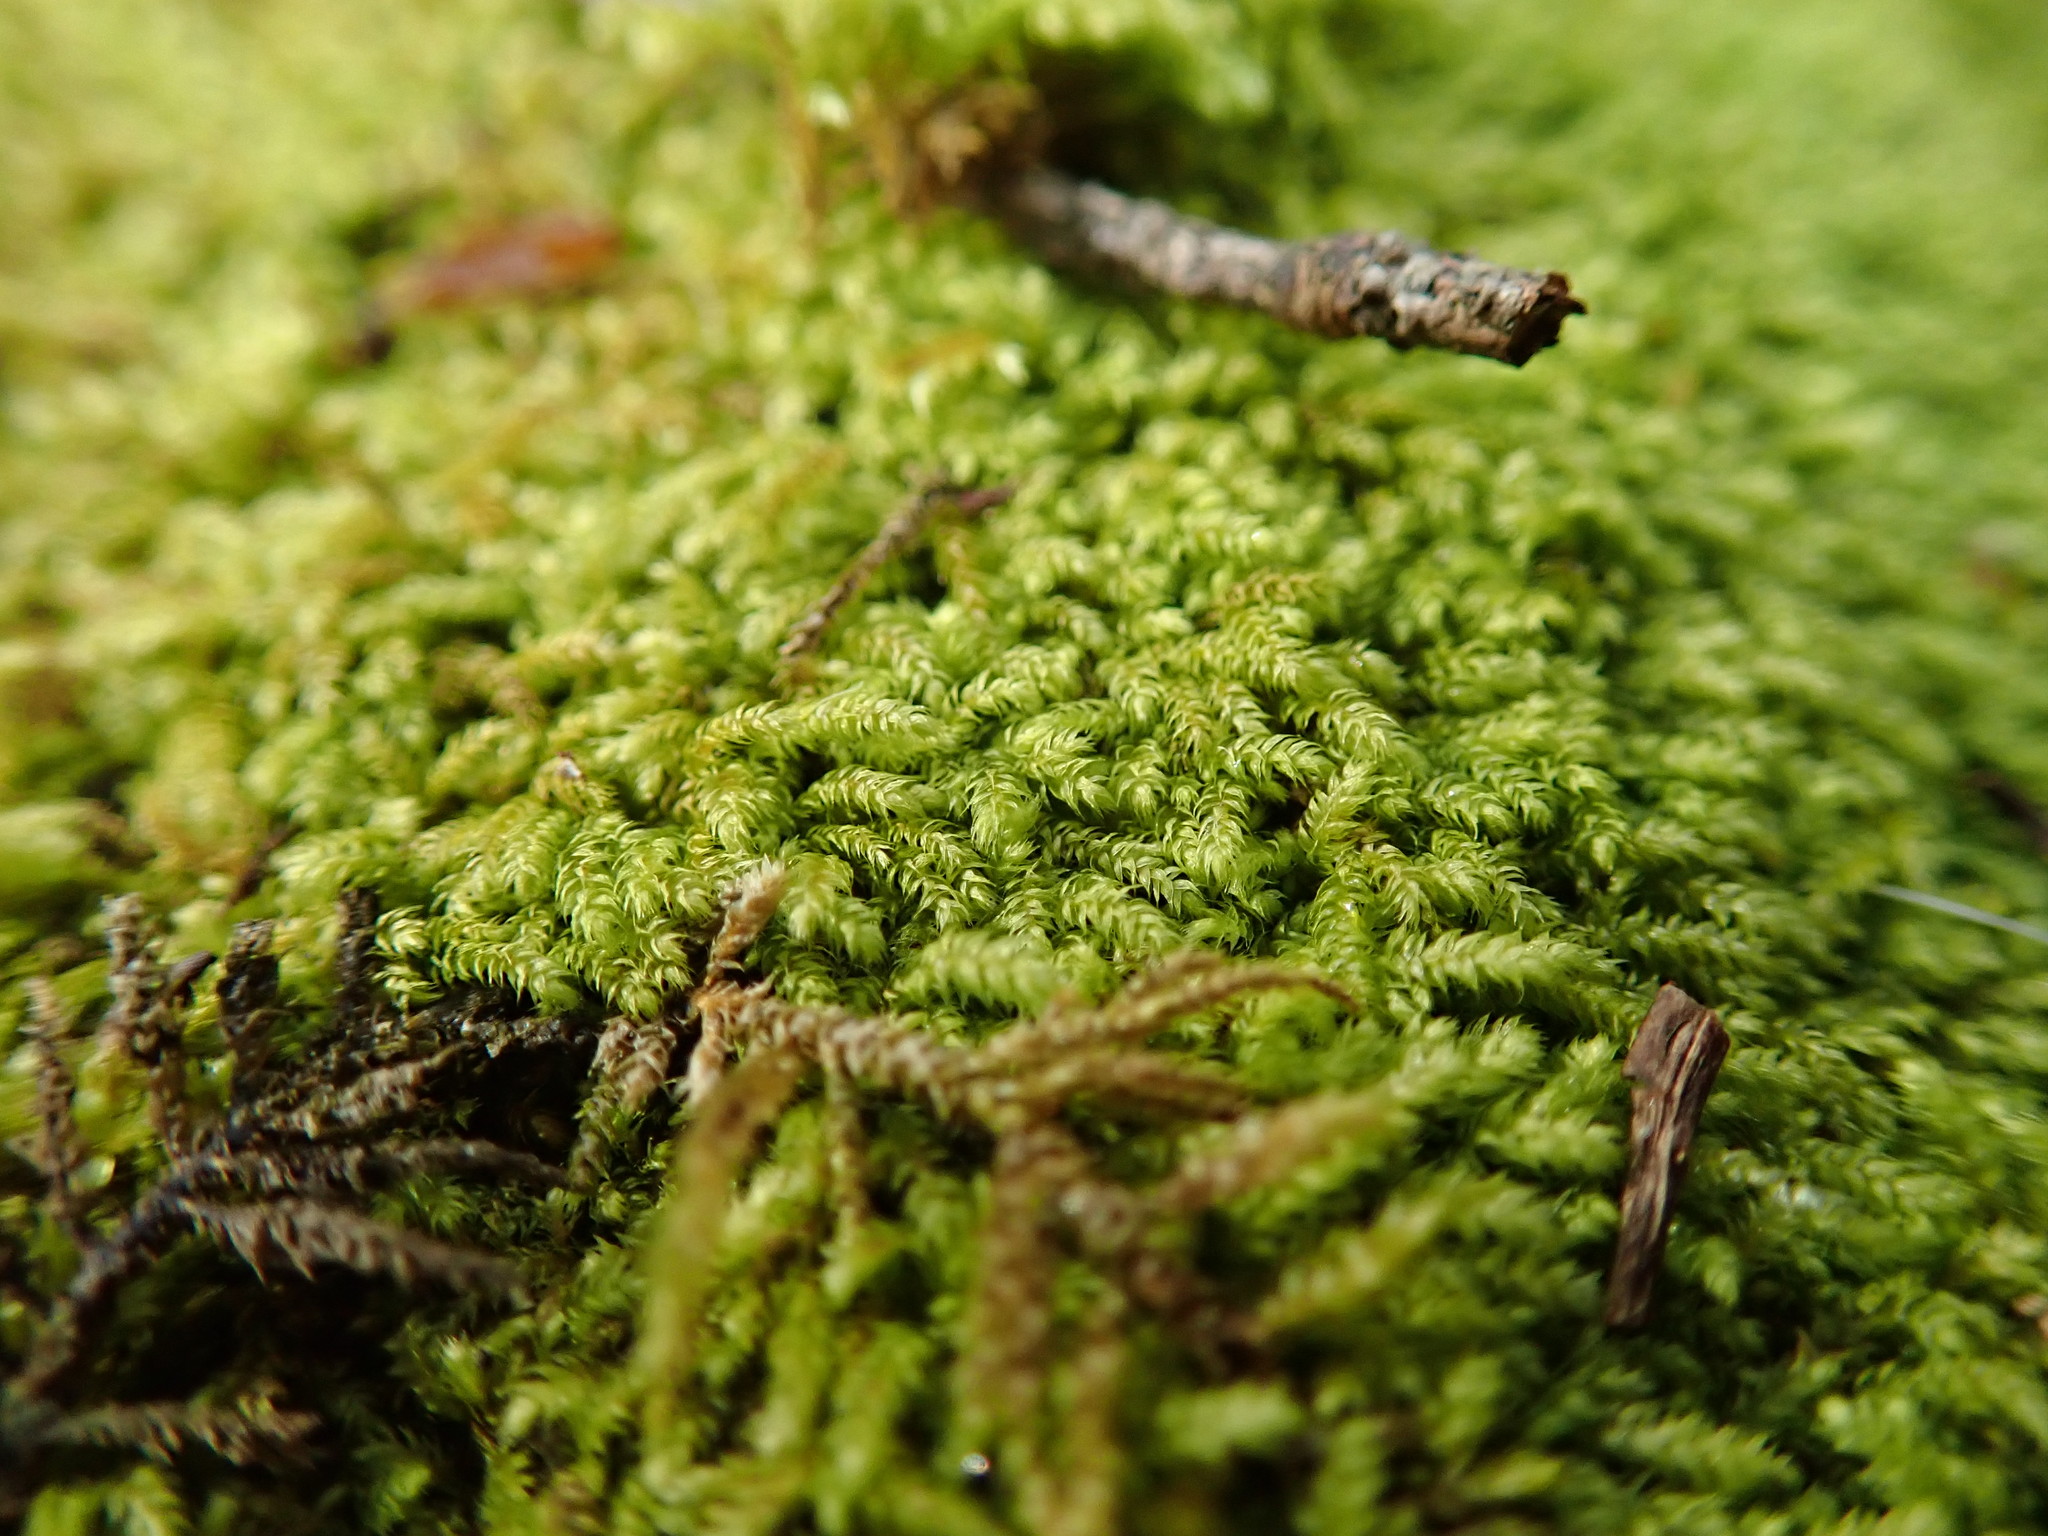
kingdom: Plantae
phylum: Bryophyta
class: Bryopsida
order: Hypnales
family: Brachytheciaceae
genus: Claopodium
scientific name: Claopodium whippleanum
